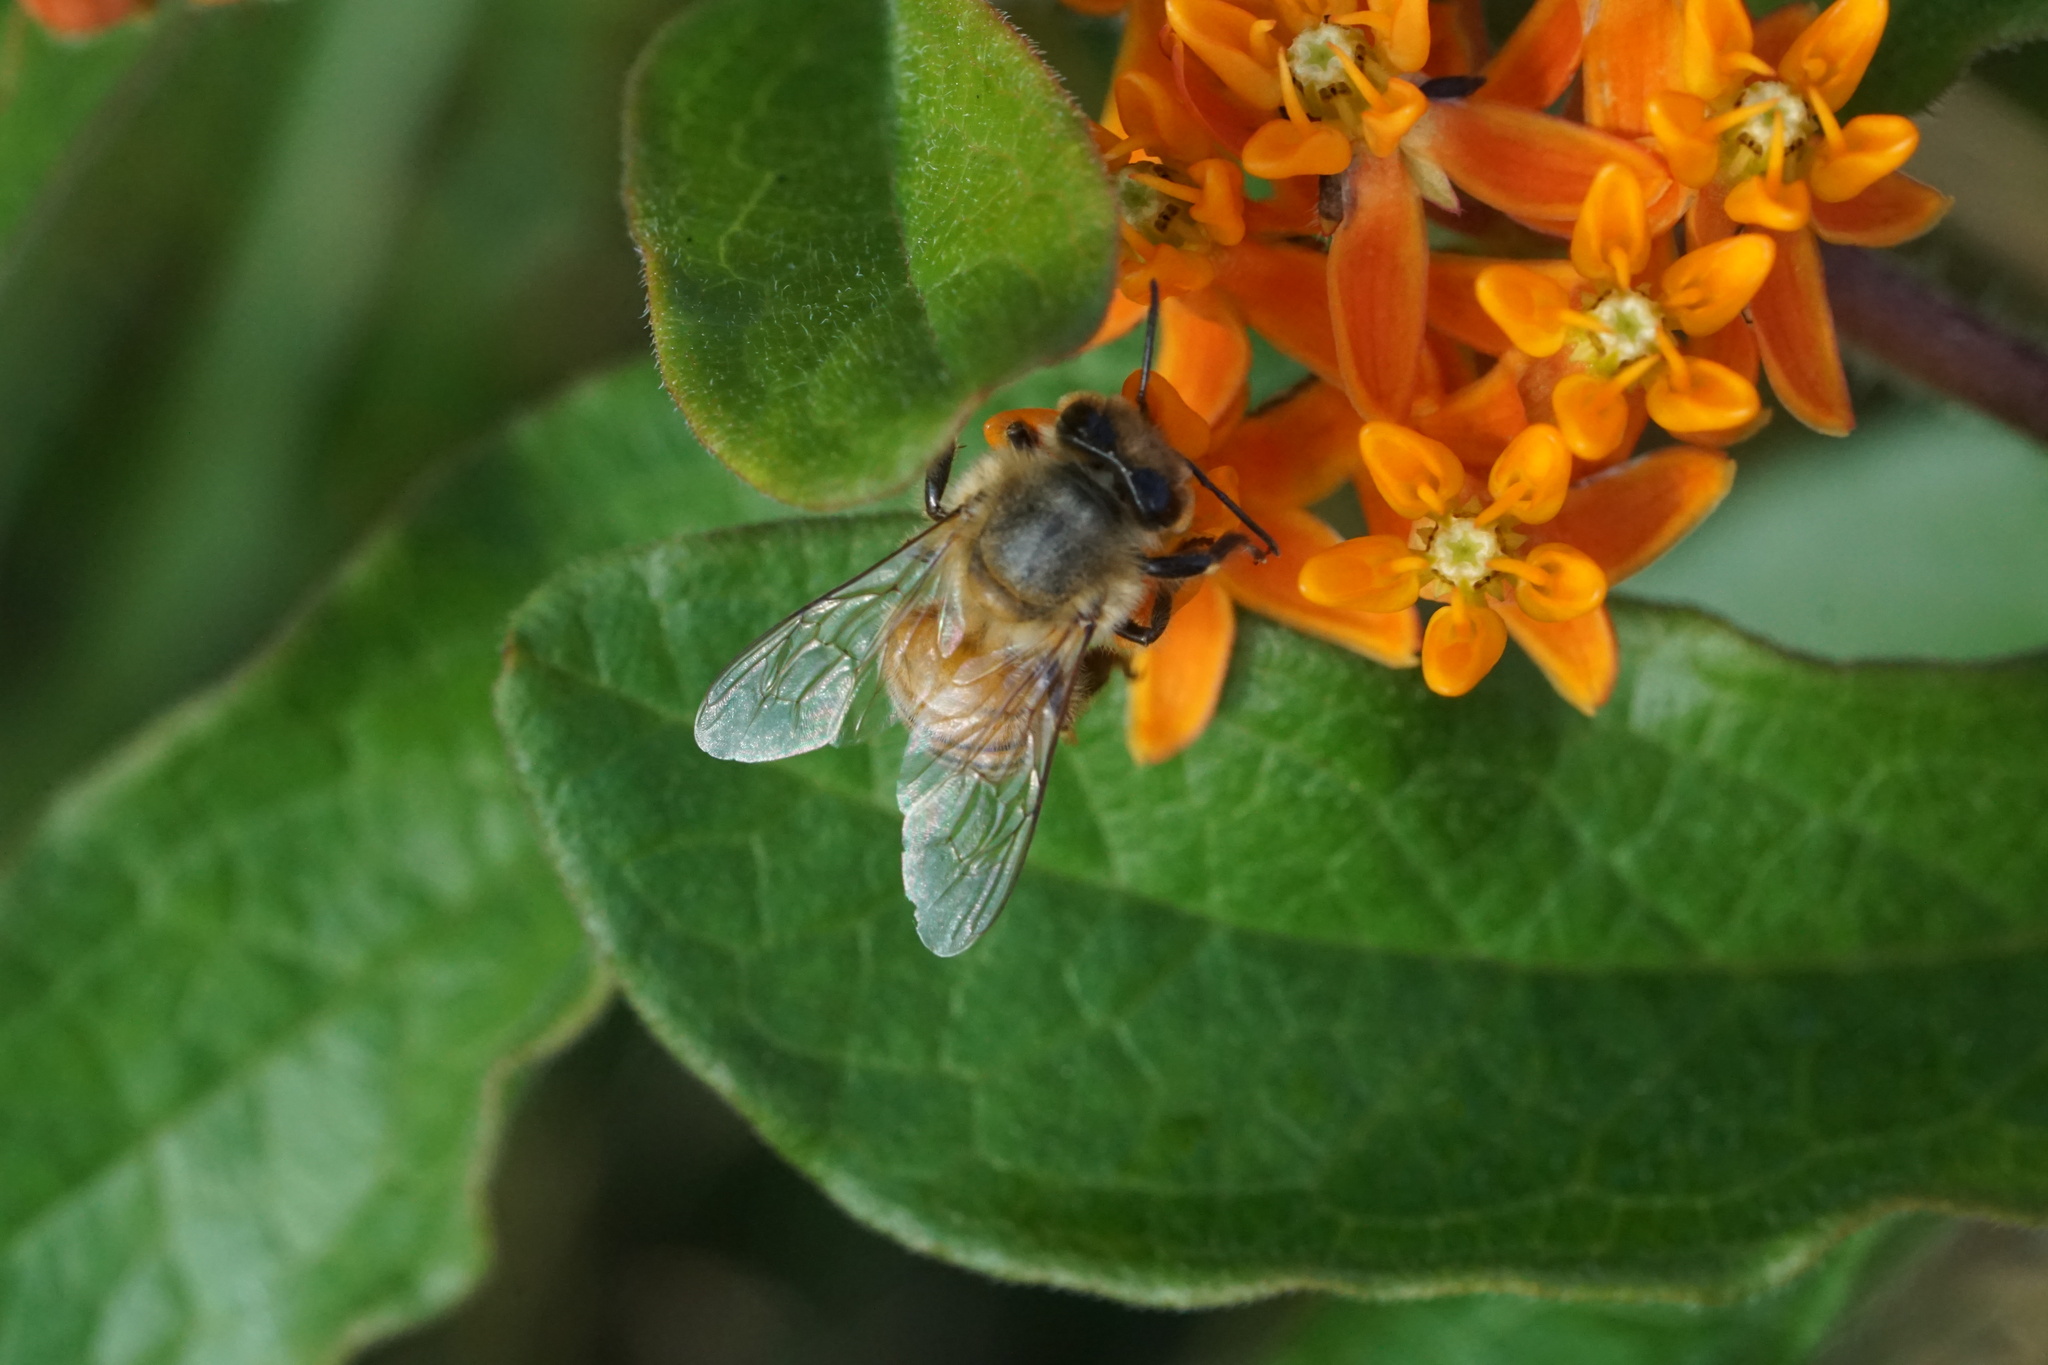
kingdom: Animalia
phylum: Arthropoda
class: Insecta
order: Hymenoptera
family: Apidae
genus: Apis
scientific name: Apis mellifera
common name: Honey bee
